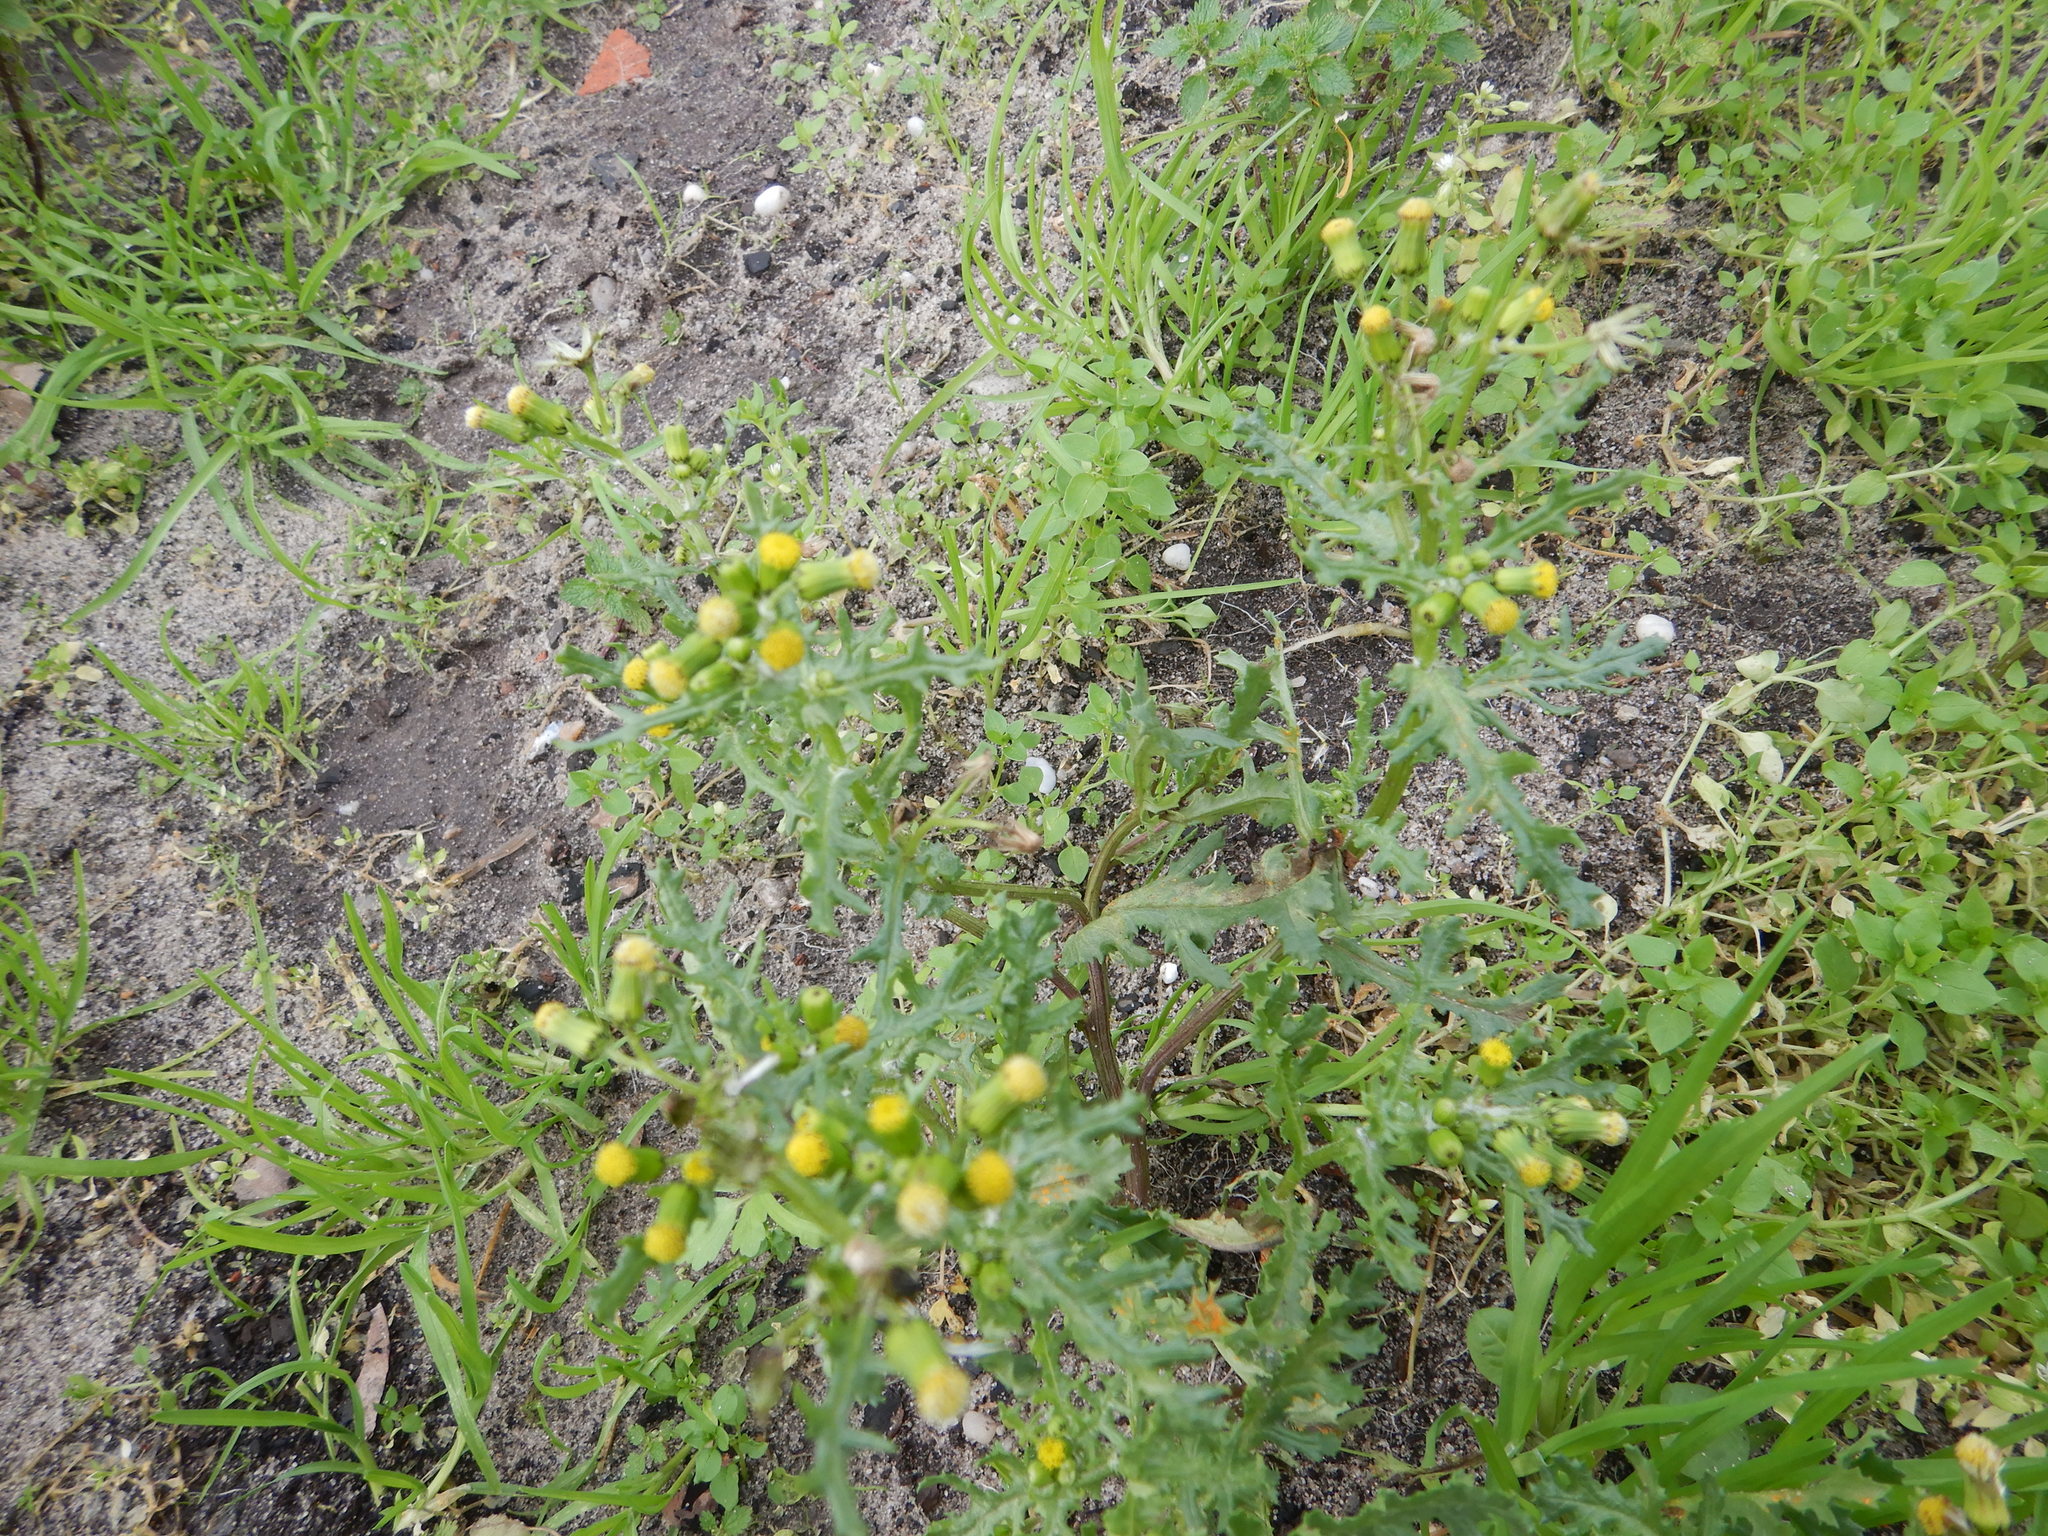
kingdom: Plantae
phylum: Tracheophyta
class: Magnoliopsida
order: Asterales
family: Asteraceae
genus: Senecio
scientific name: Senecio vulgaris
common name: Old-man-in-the-spring
